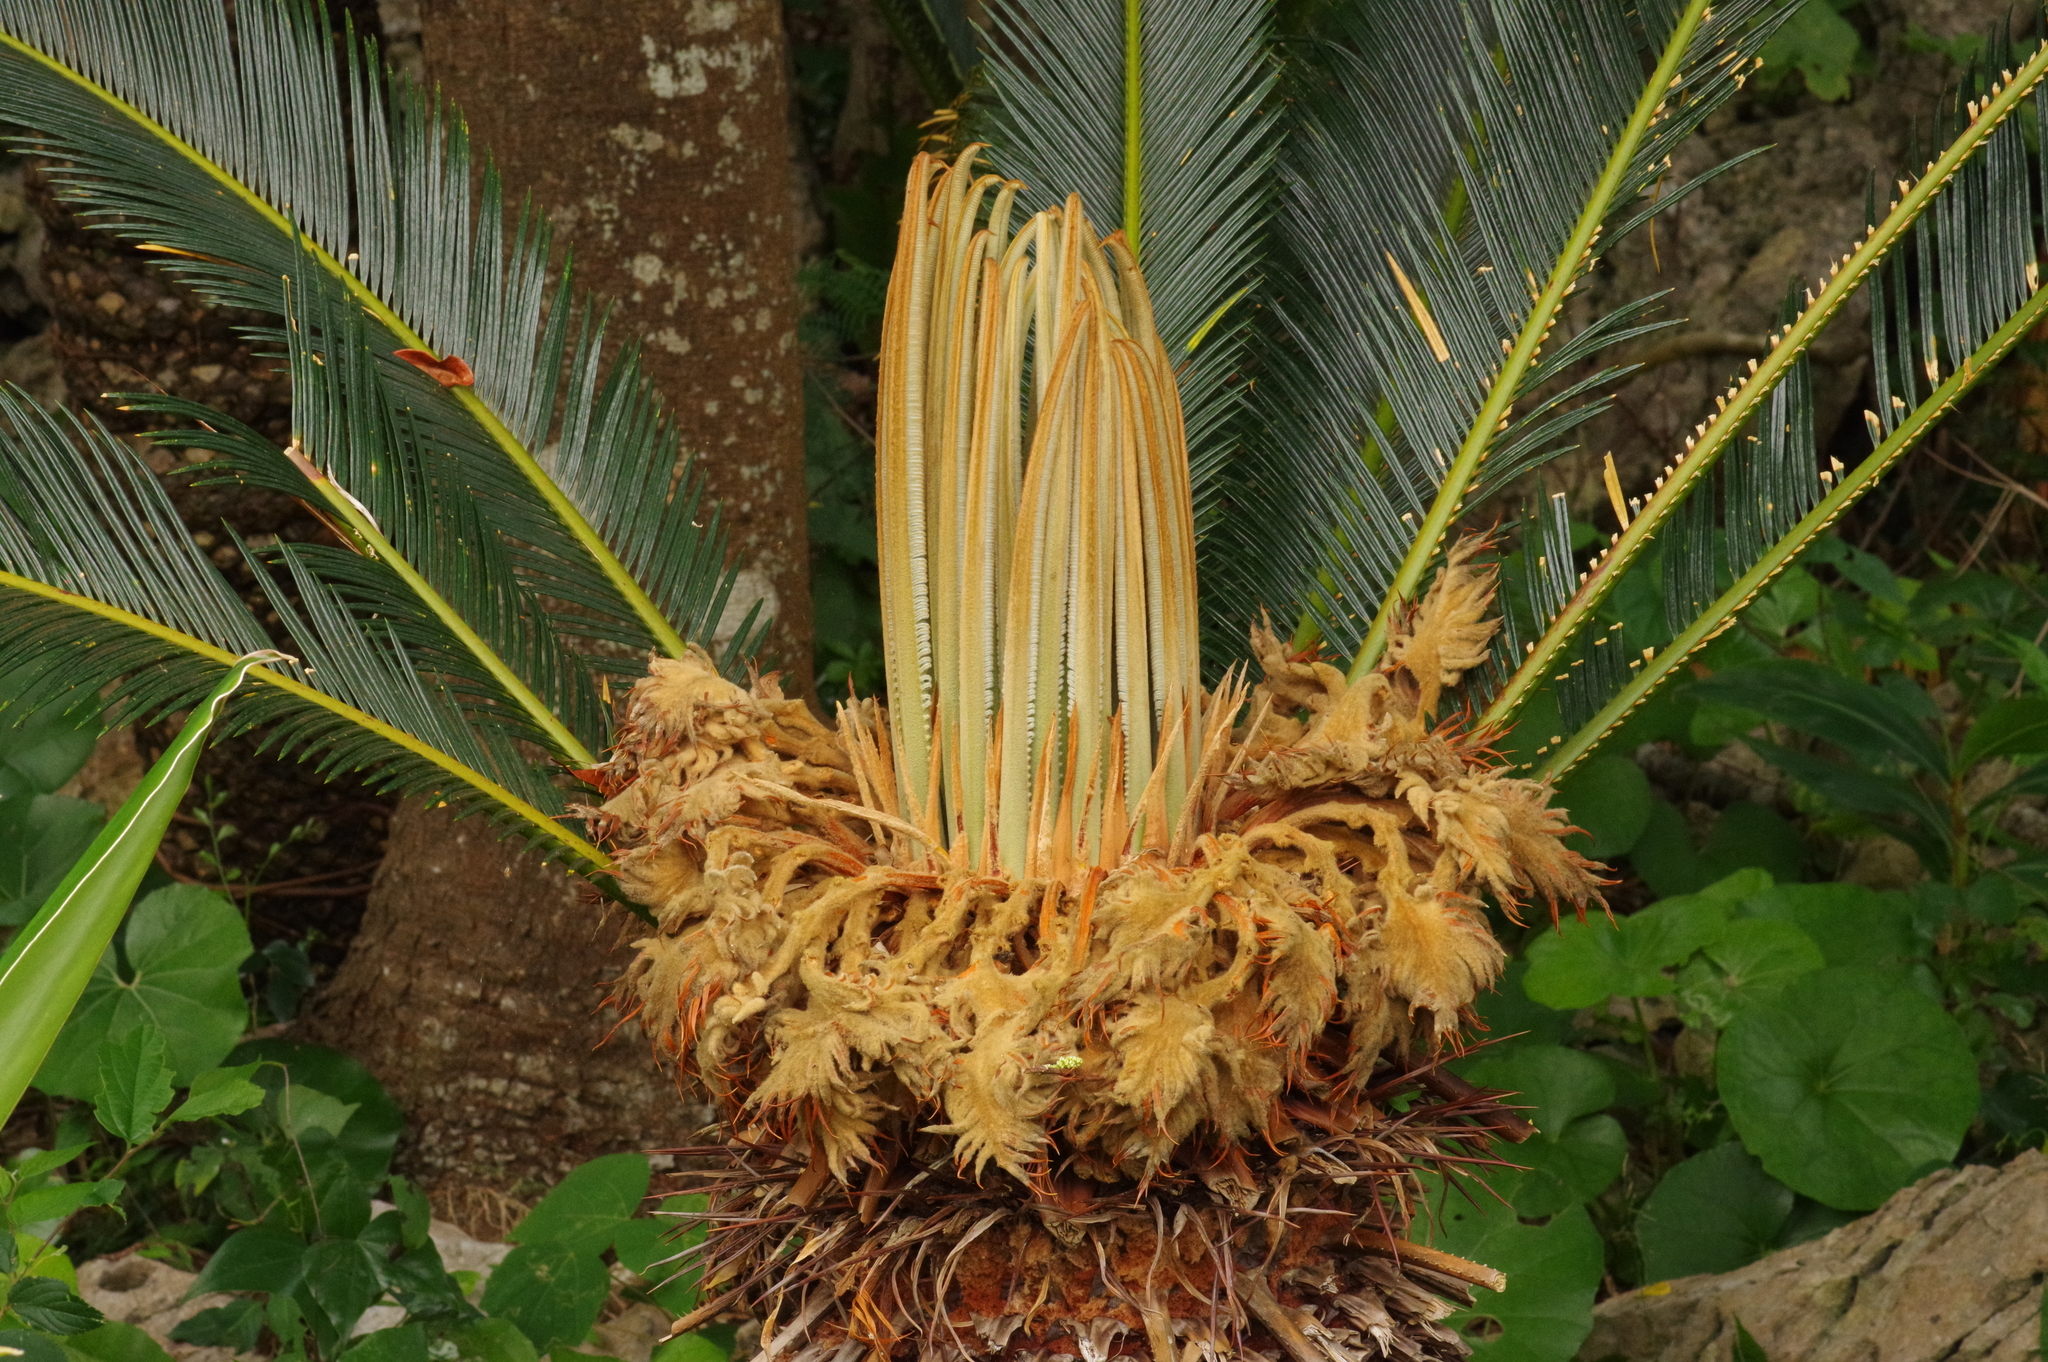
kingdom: Plantae
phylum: Tracheophyta
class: Cycadopsida
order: Cycadales
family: Cycadaceae
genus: Cycas
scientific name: Cycas revoluta
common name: Sago palm
